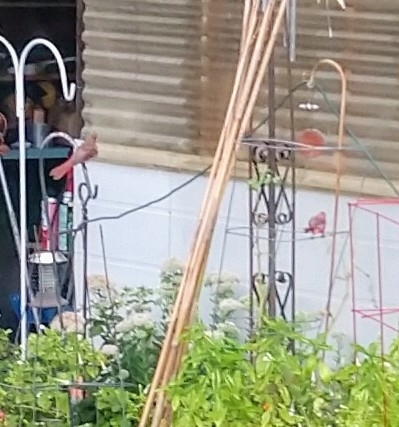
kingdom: Animalia
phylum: Chordata
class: Aves
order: Passeriformes
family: Cardinalidae
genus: Cardinalis
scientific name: Cardinalis cardinalis
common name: Northern cardinal
